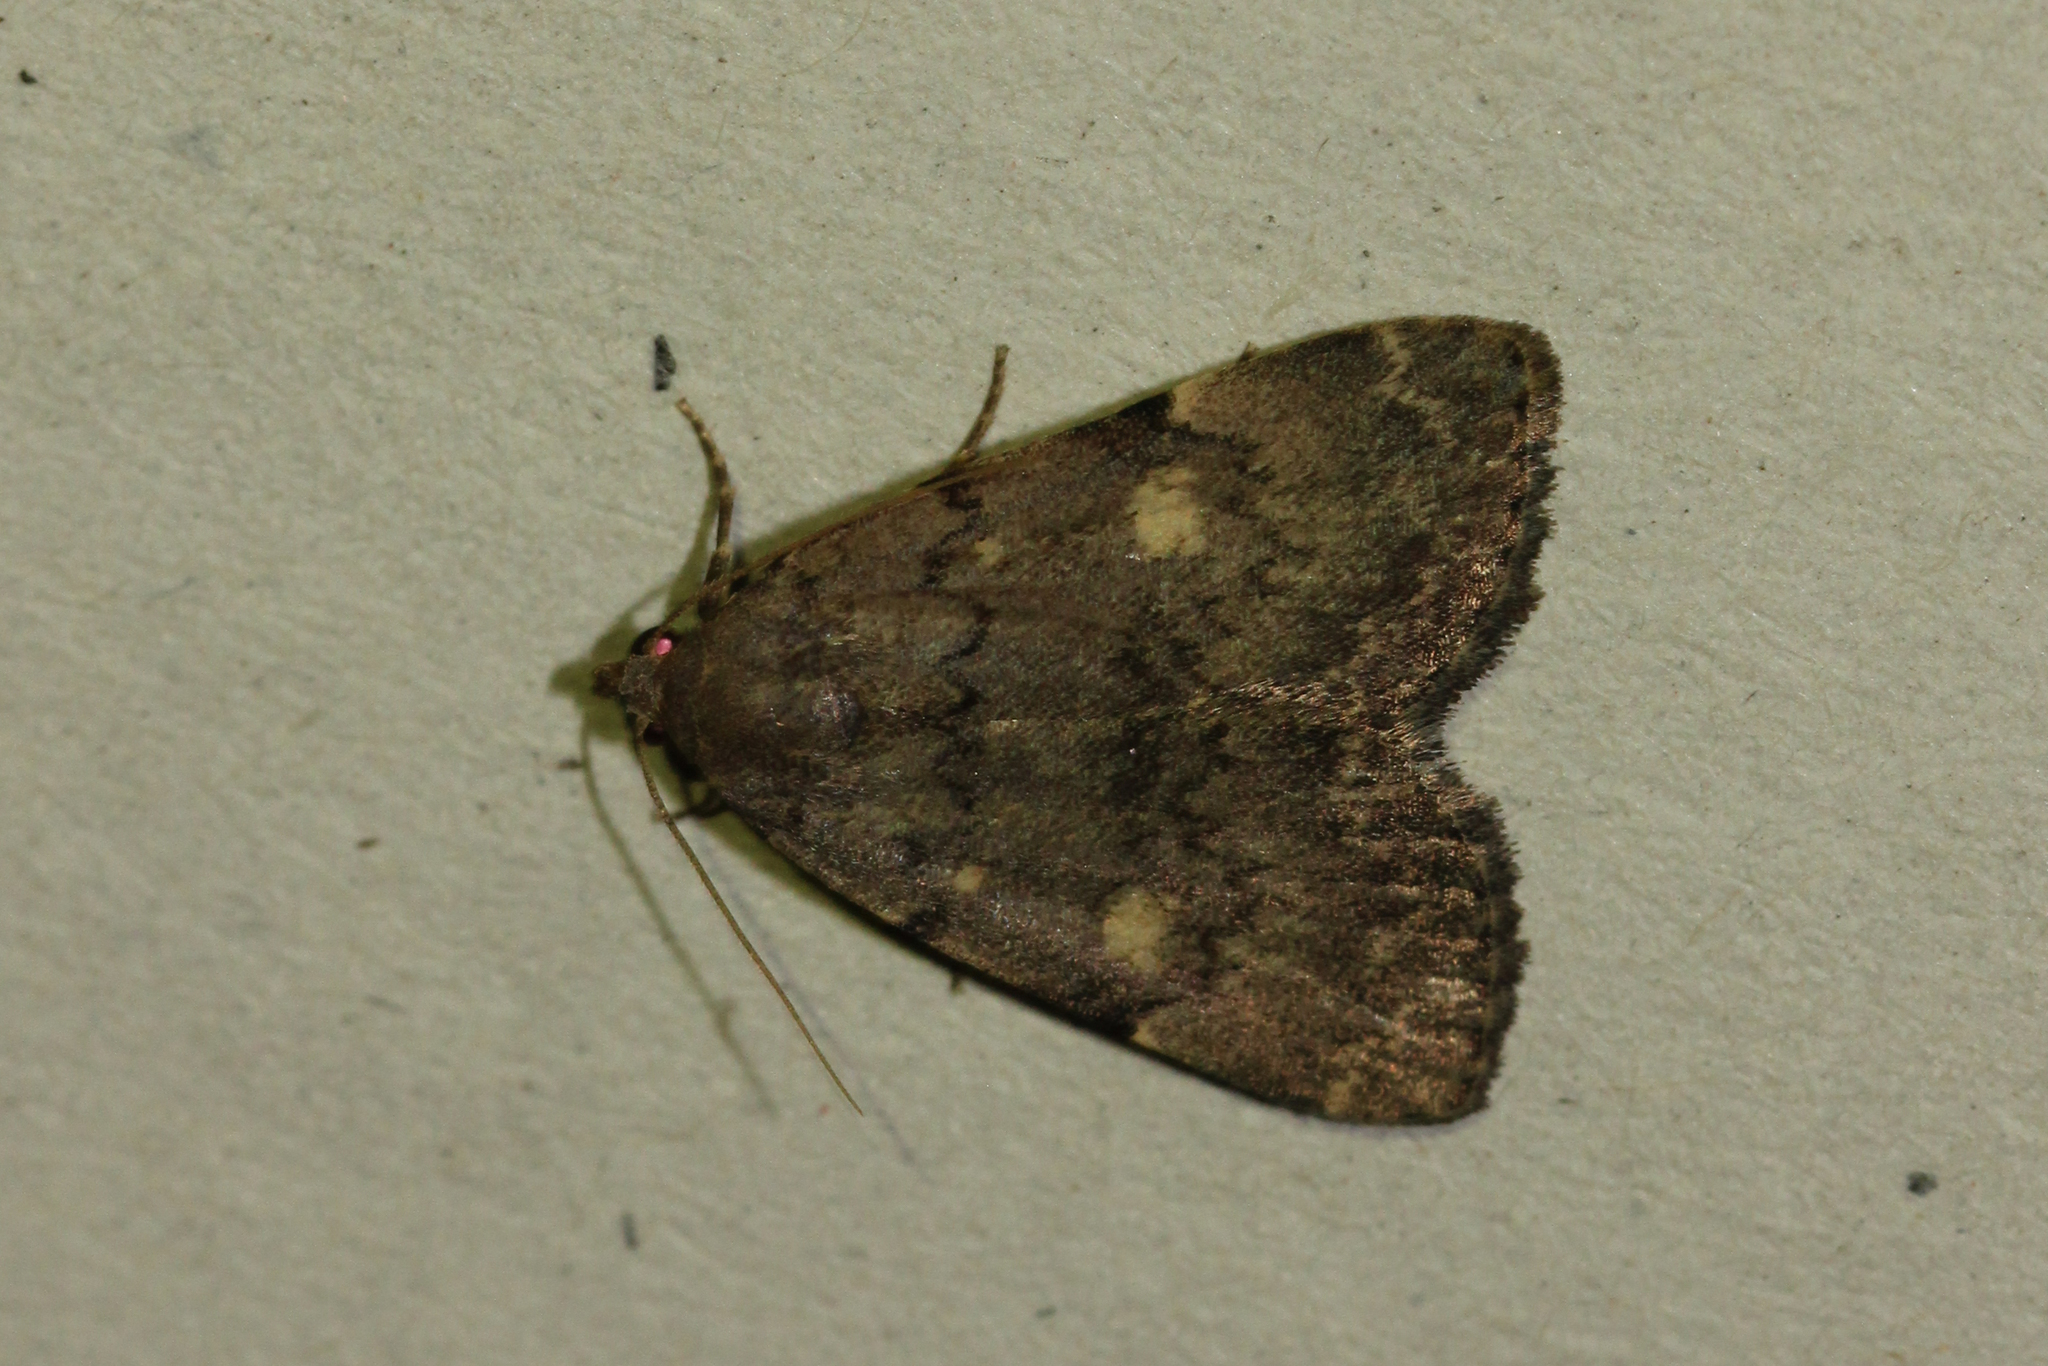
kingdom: Animalia
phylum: Arthropoda
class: Insecta
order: Lepidoptera
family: Erebidae
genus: Idia
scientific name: Idia aemula
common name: Common idia moth
